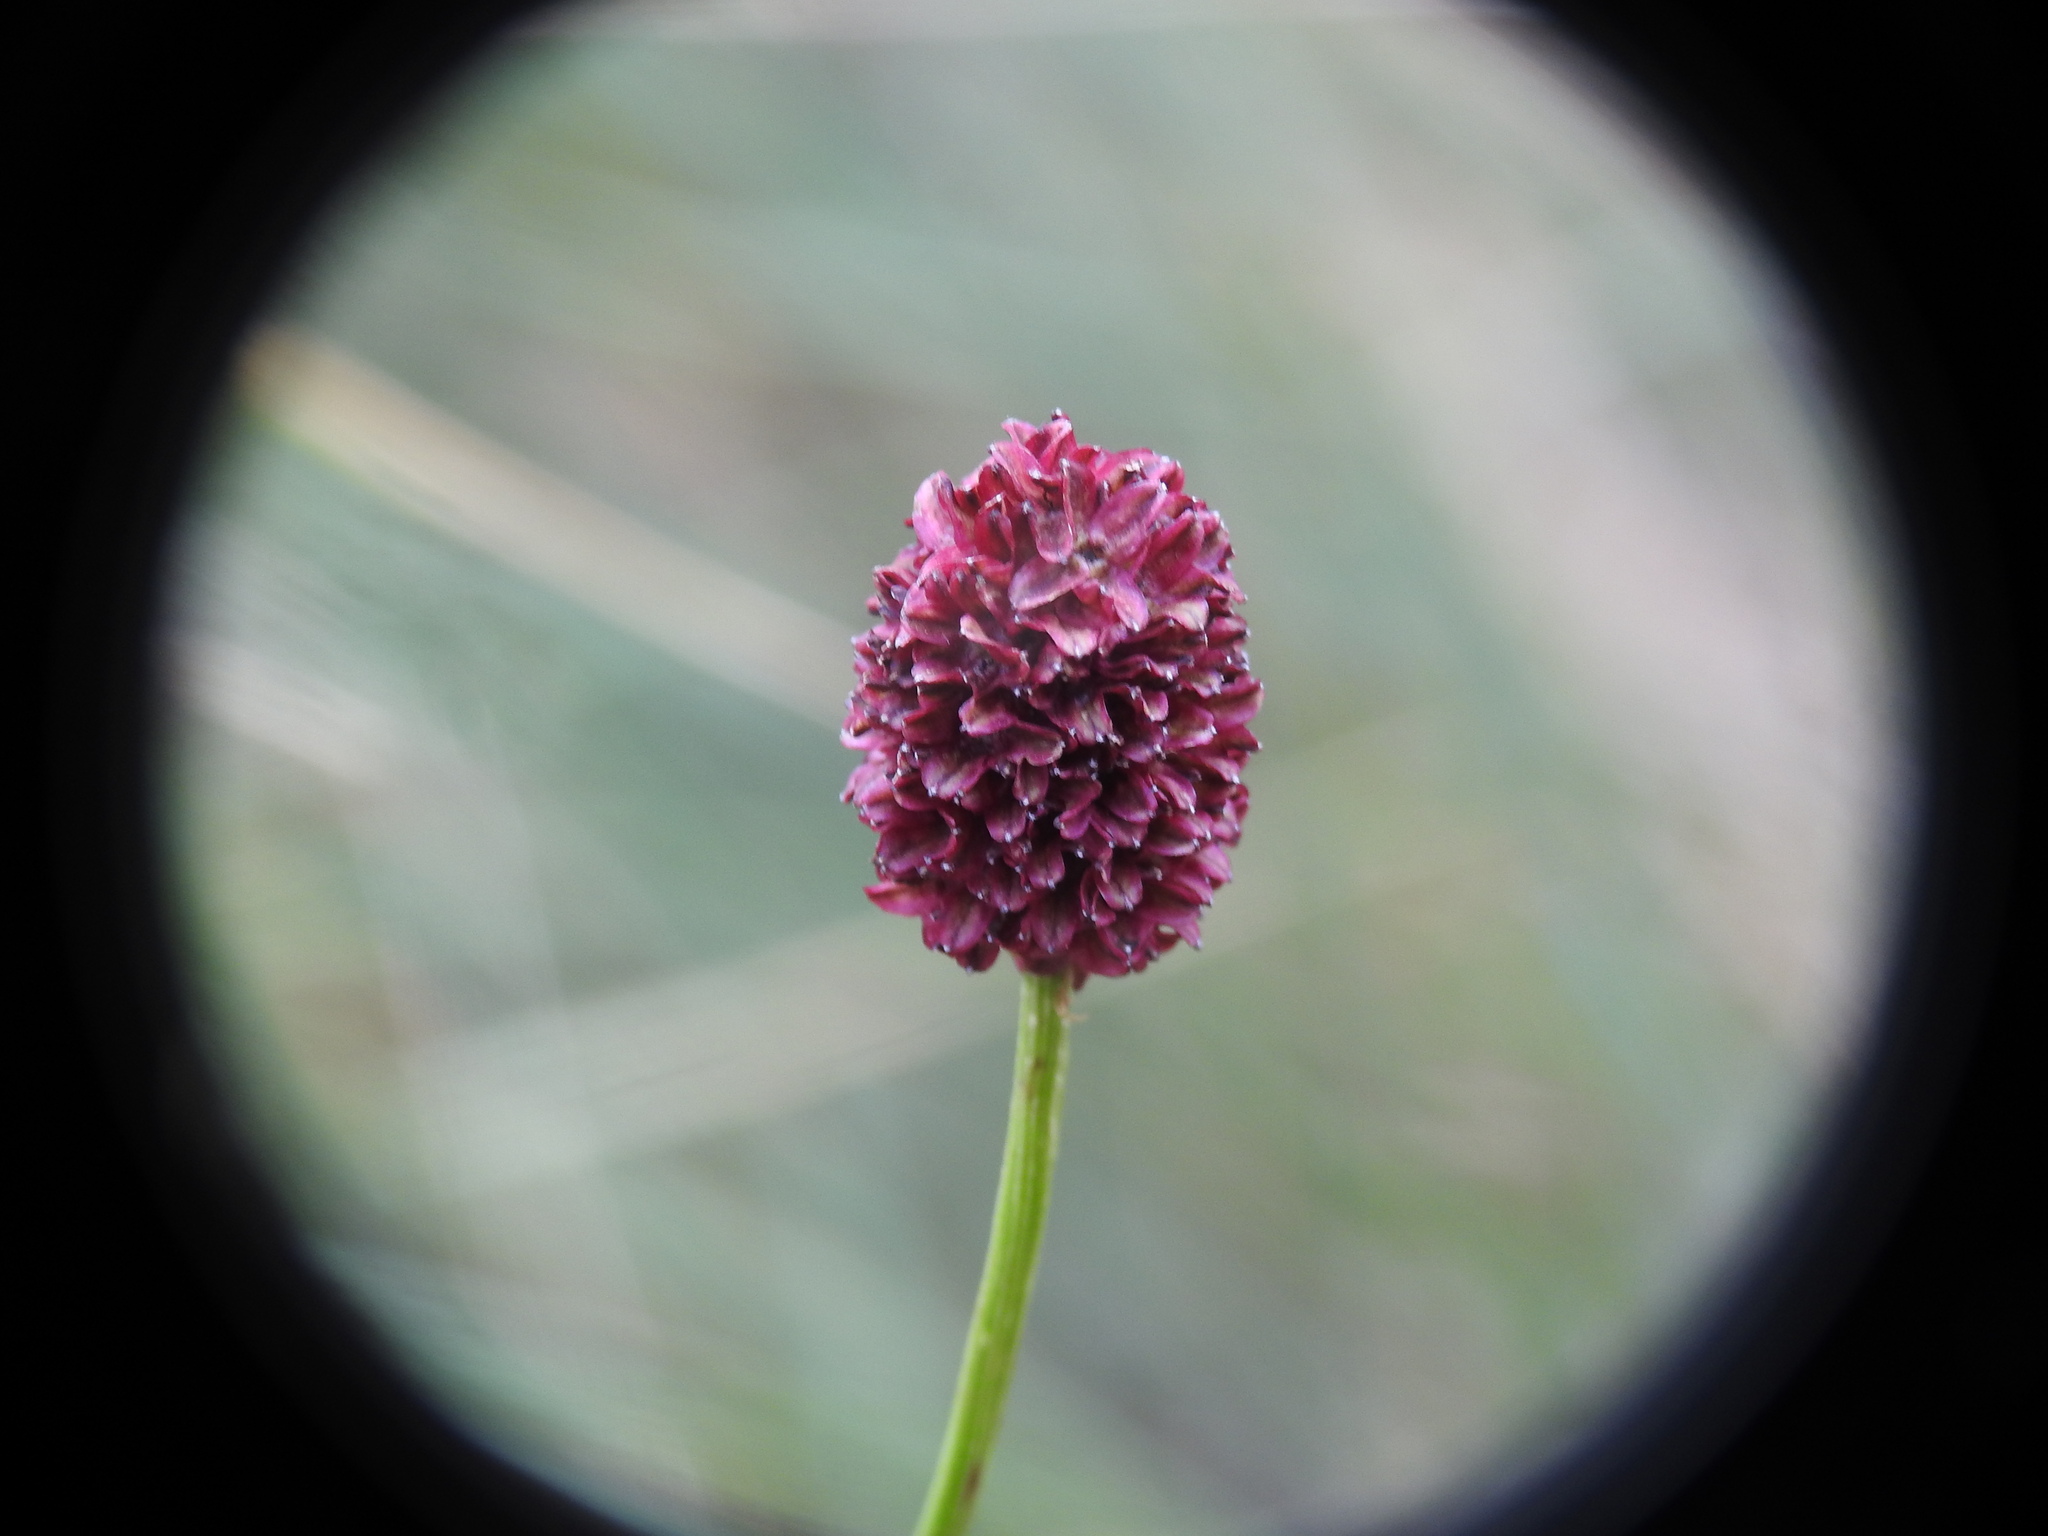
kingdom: Plantae
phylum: Tracheophyta
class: Magnoliopsida
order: Rosales
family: Rosaceae
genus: Sanguisorba
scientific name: Sanguisorba officinalis
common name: Great burnet
